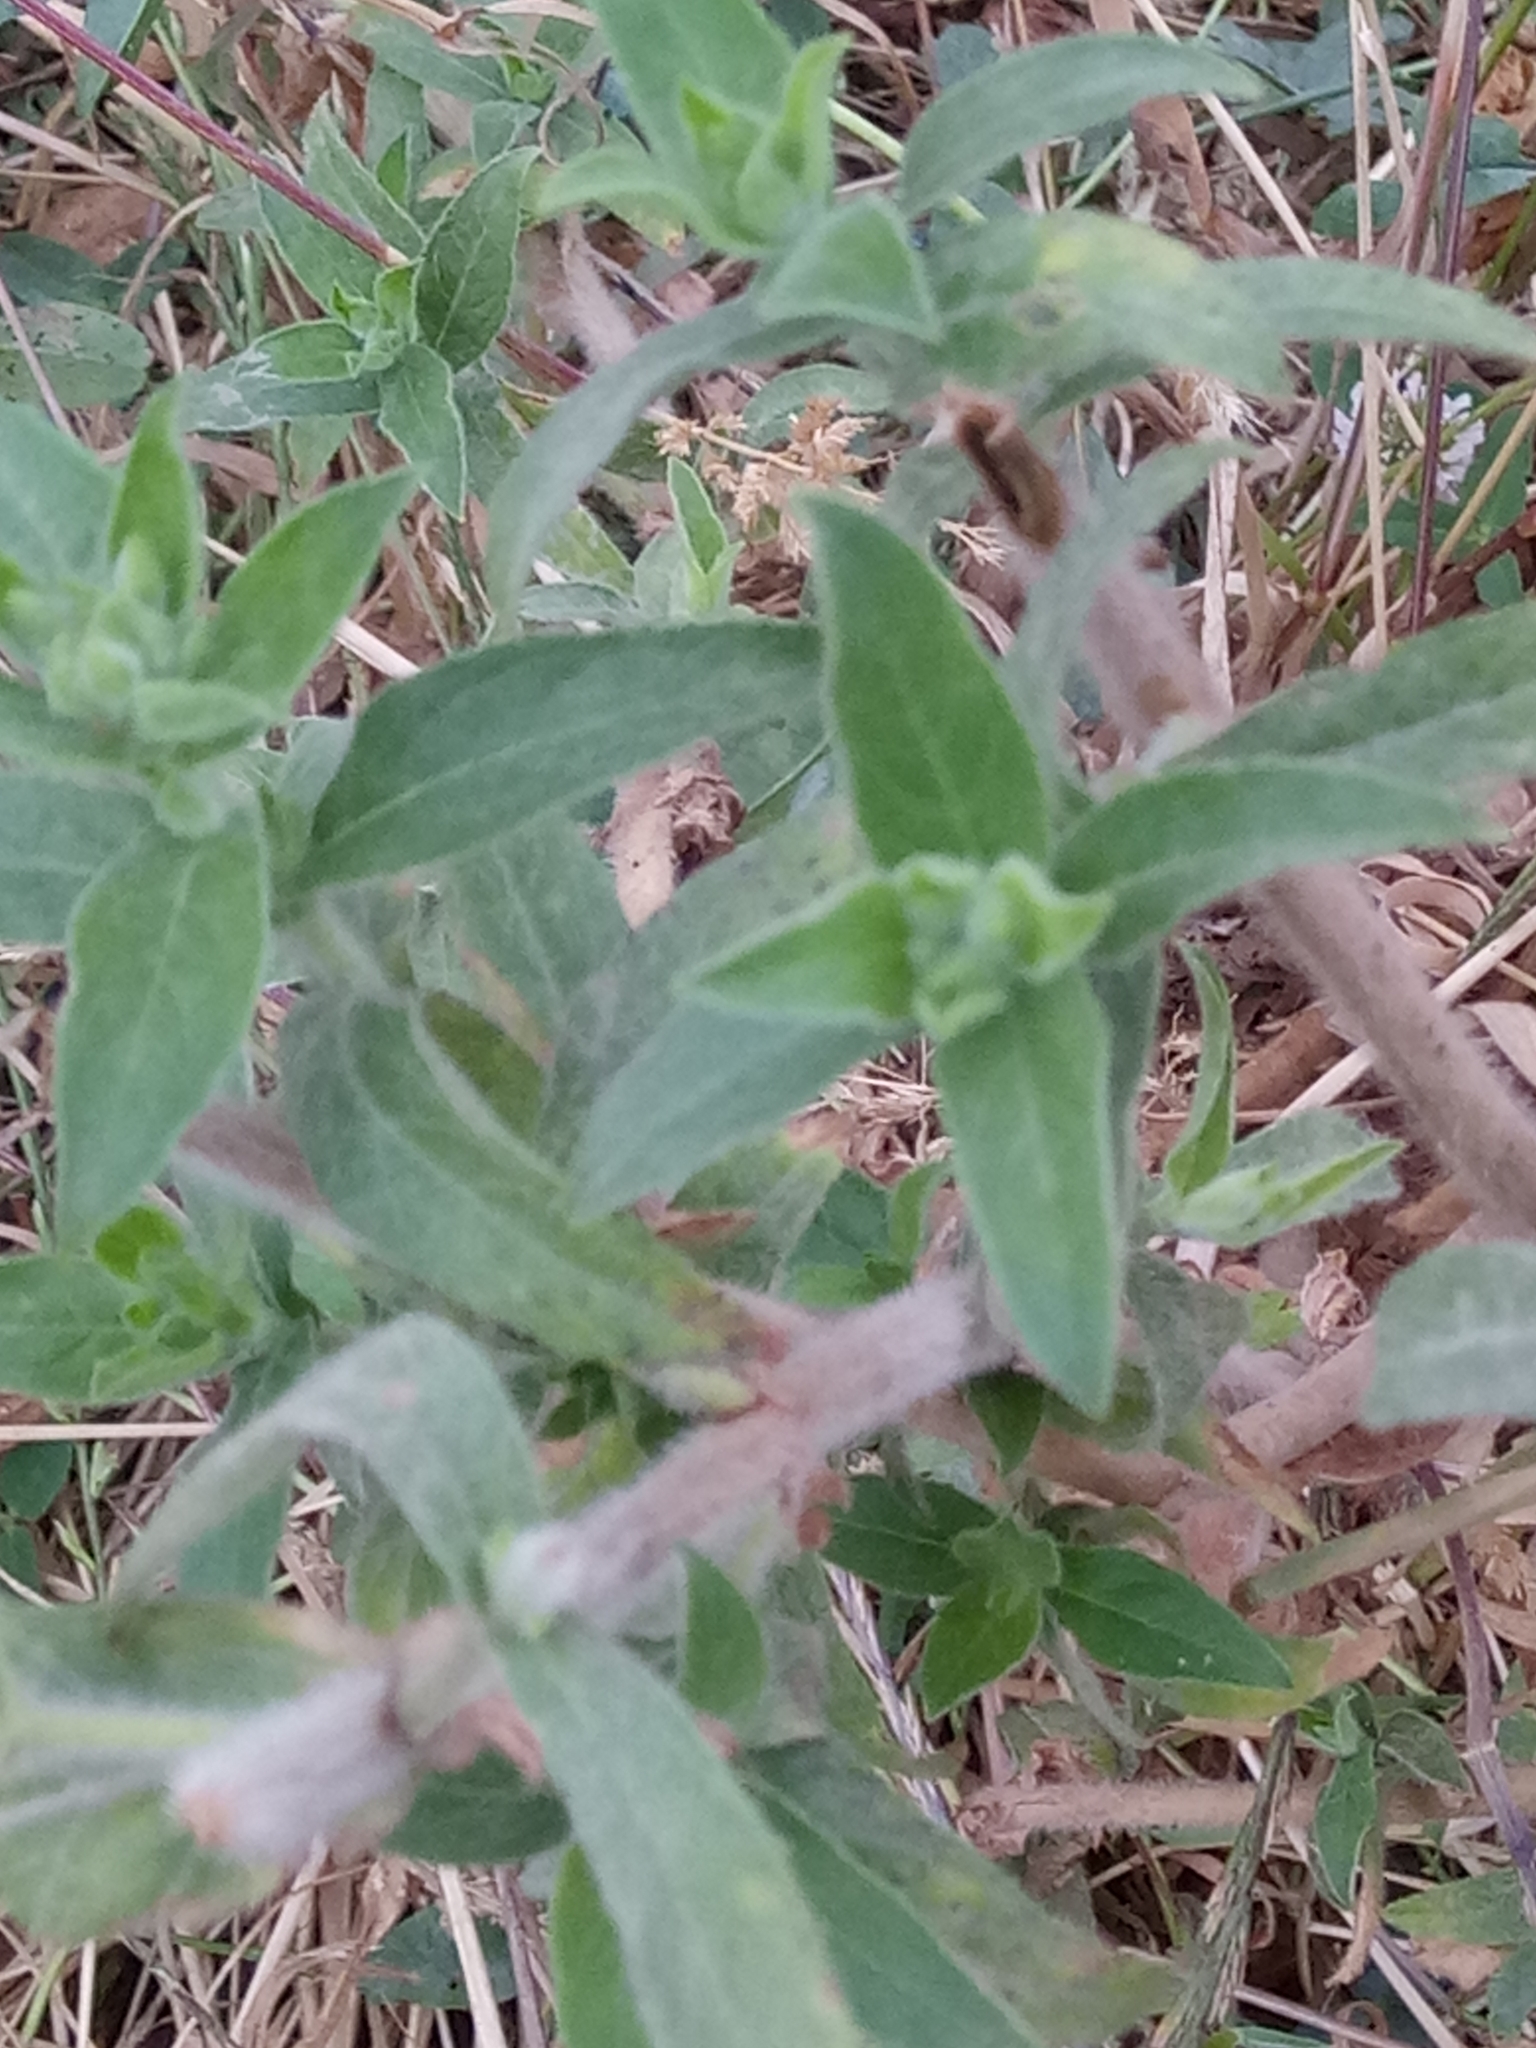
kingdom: Plantae
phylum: Tracheophyta
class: Magnoliopsida
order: Myrtales
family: Onagraceae
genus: Epilobium
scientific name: Epilobium hirsutum
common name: Great willowherb
